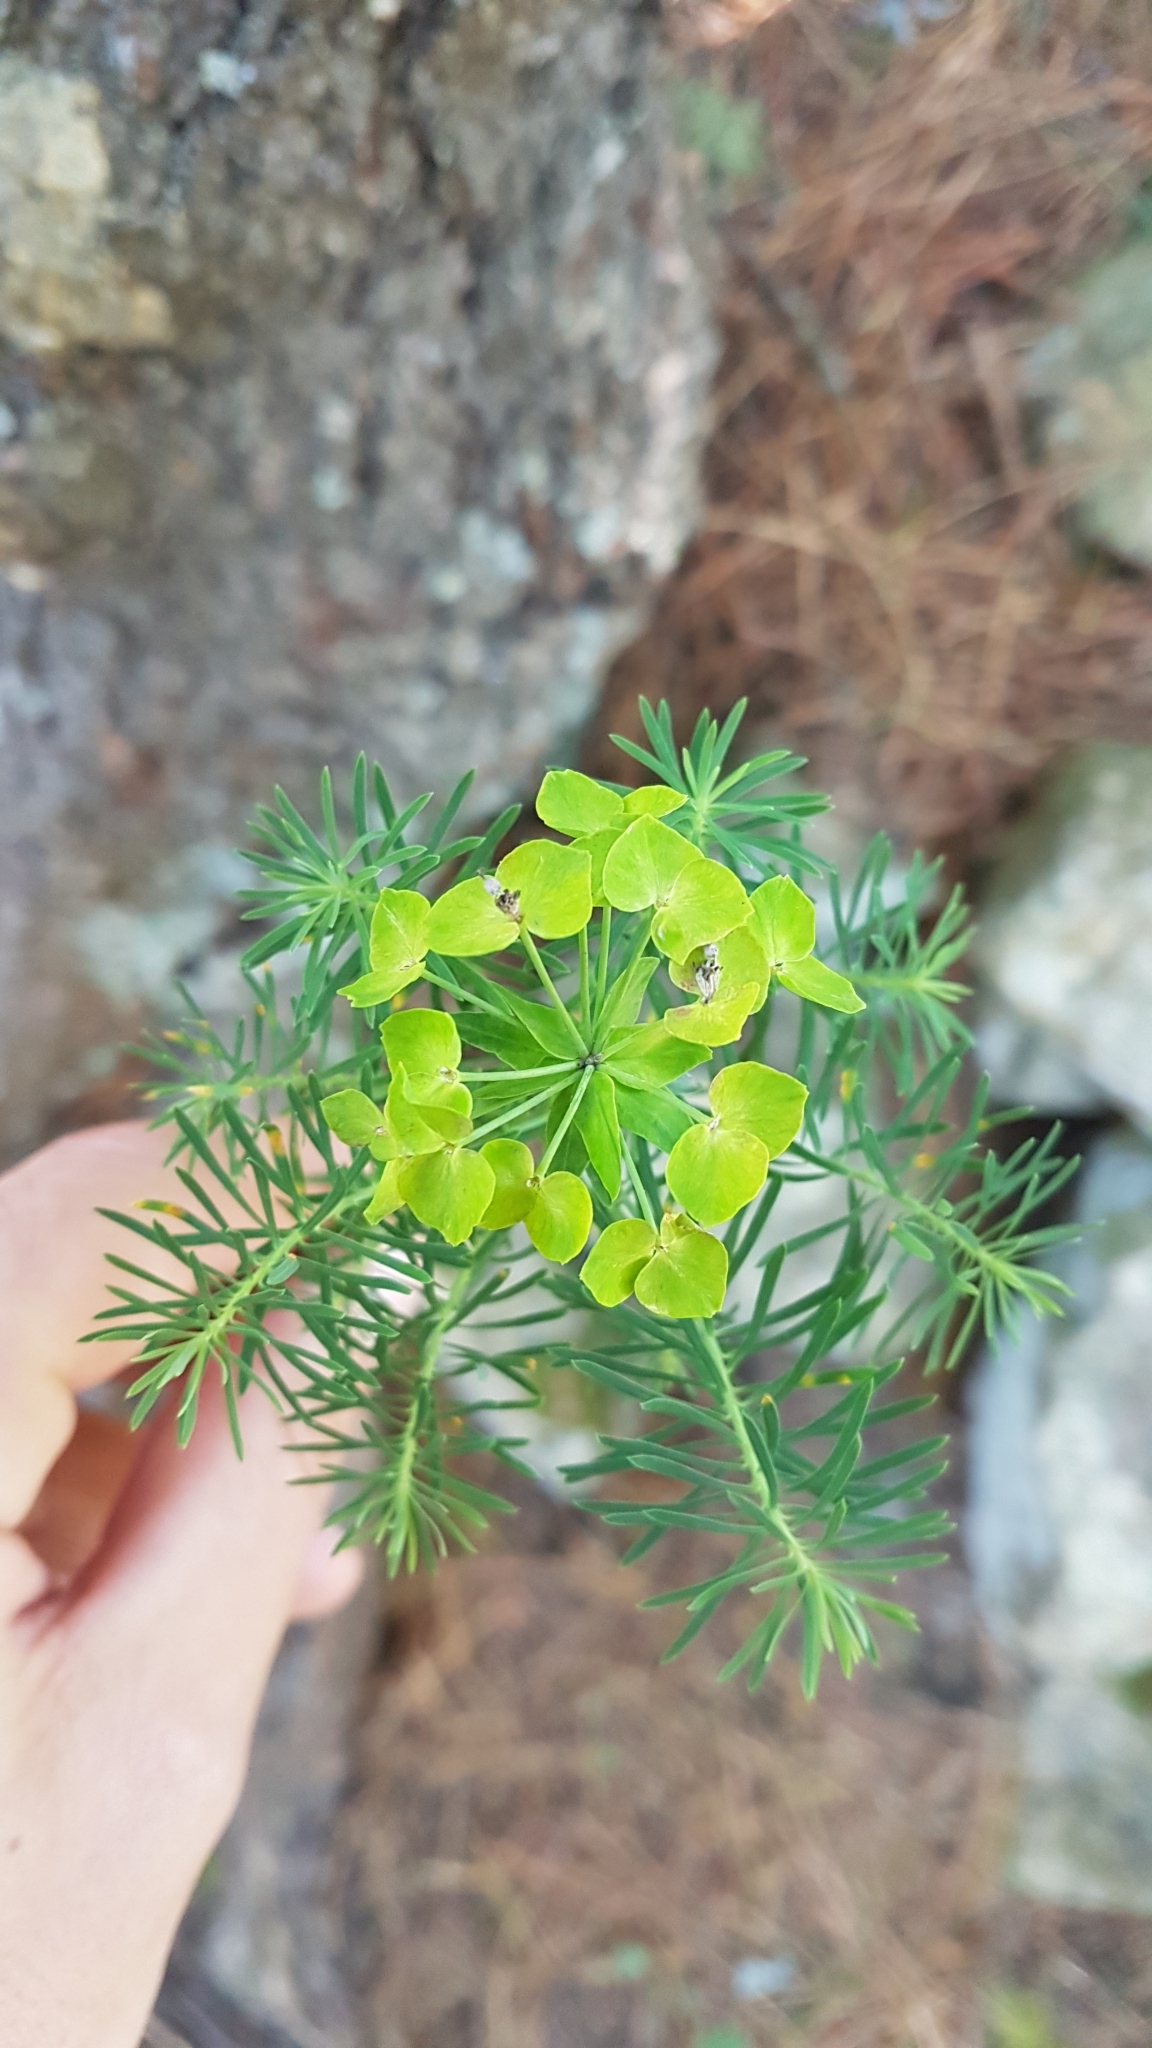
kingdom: Plantae
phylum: Tracheophyta
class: Magnoliopsida
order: Malpighiales
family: Euphorbiaceae
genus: Euphorbia
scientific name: Euphorbia cyparissias
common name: Cypress spurge
